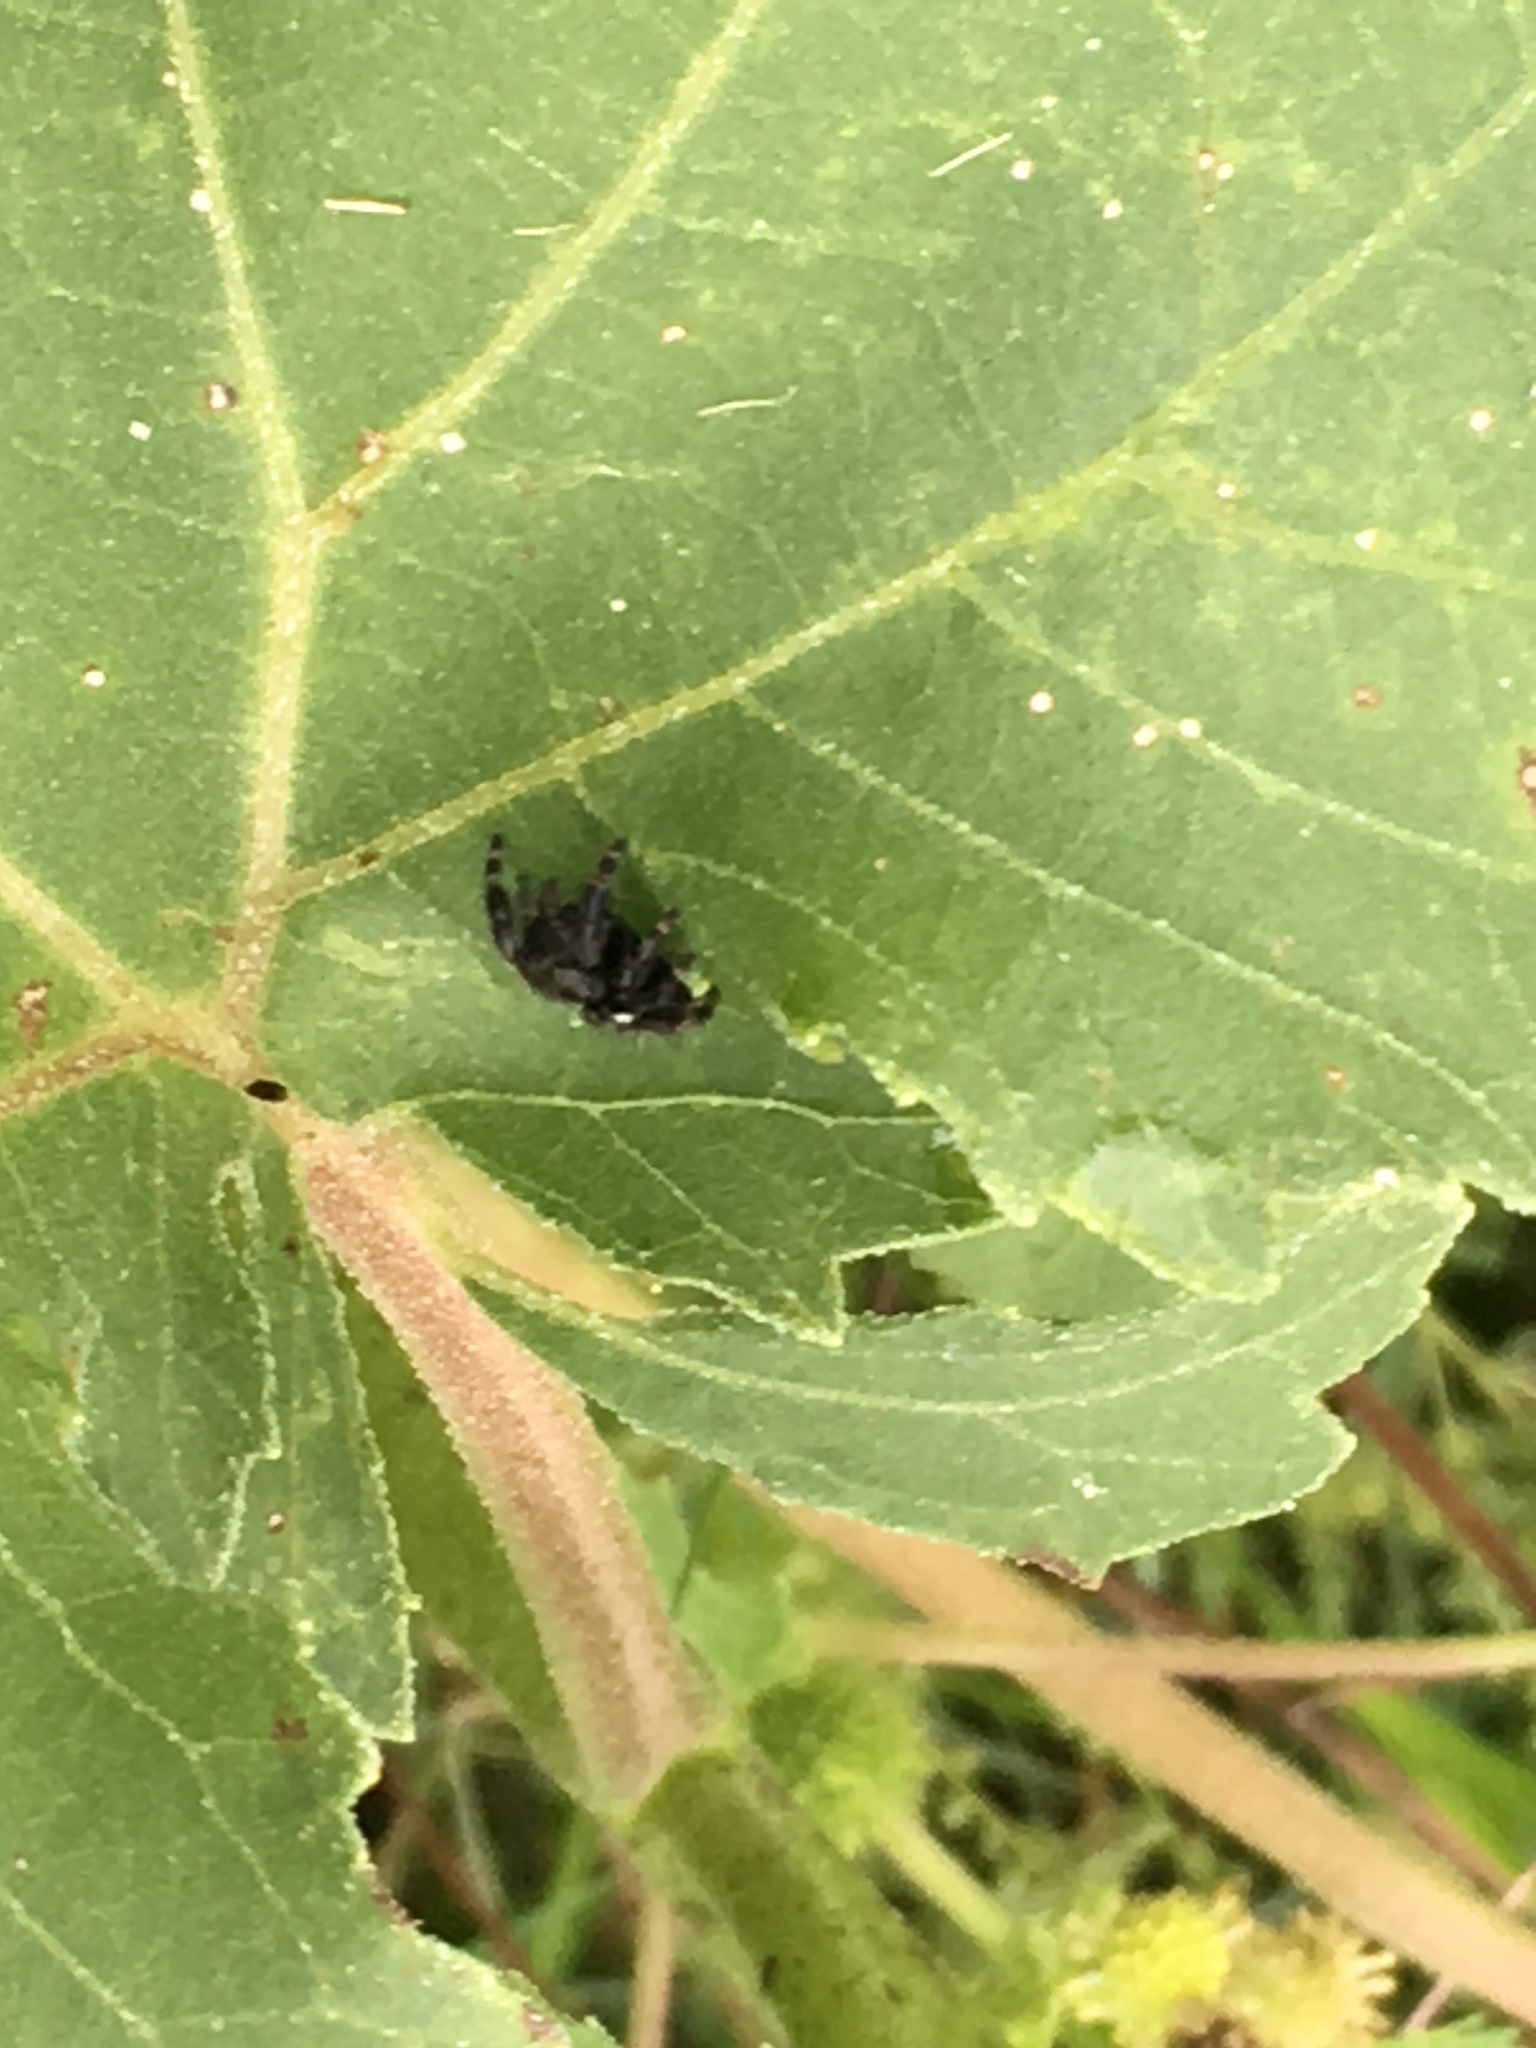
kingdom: Animalia
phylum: Arthropoda
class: Arachnida
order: Araneae
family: Salticidae
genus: Phidippus
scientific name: Phidippus audax
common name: Bold jumper
